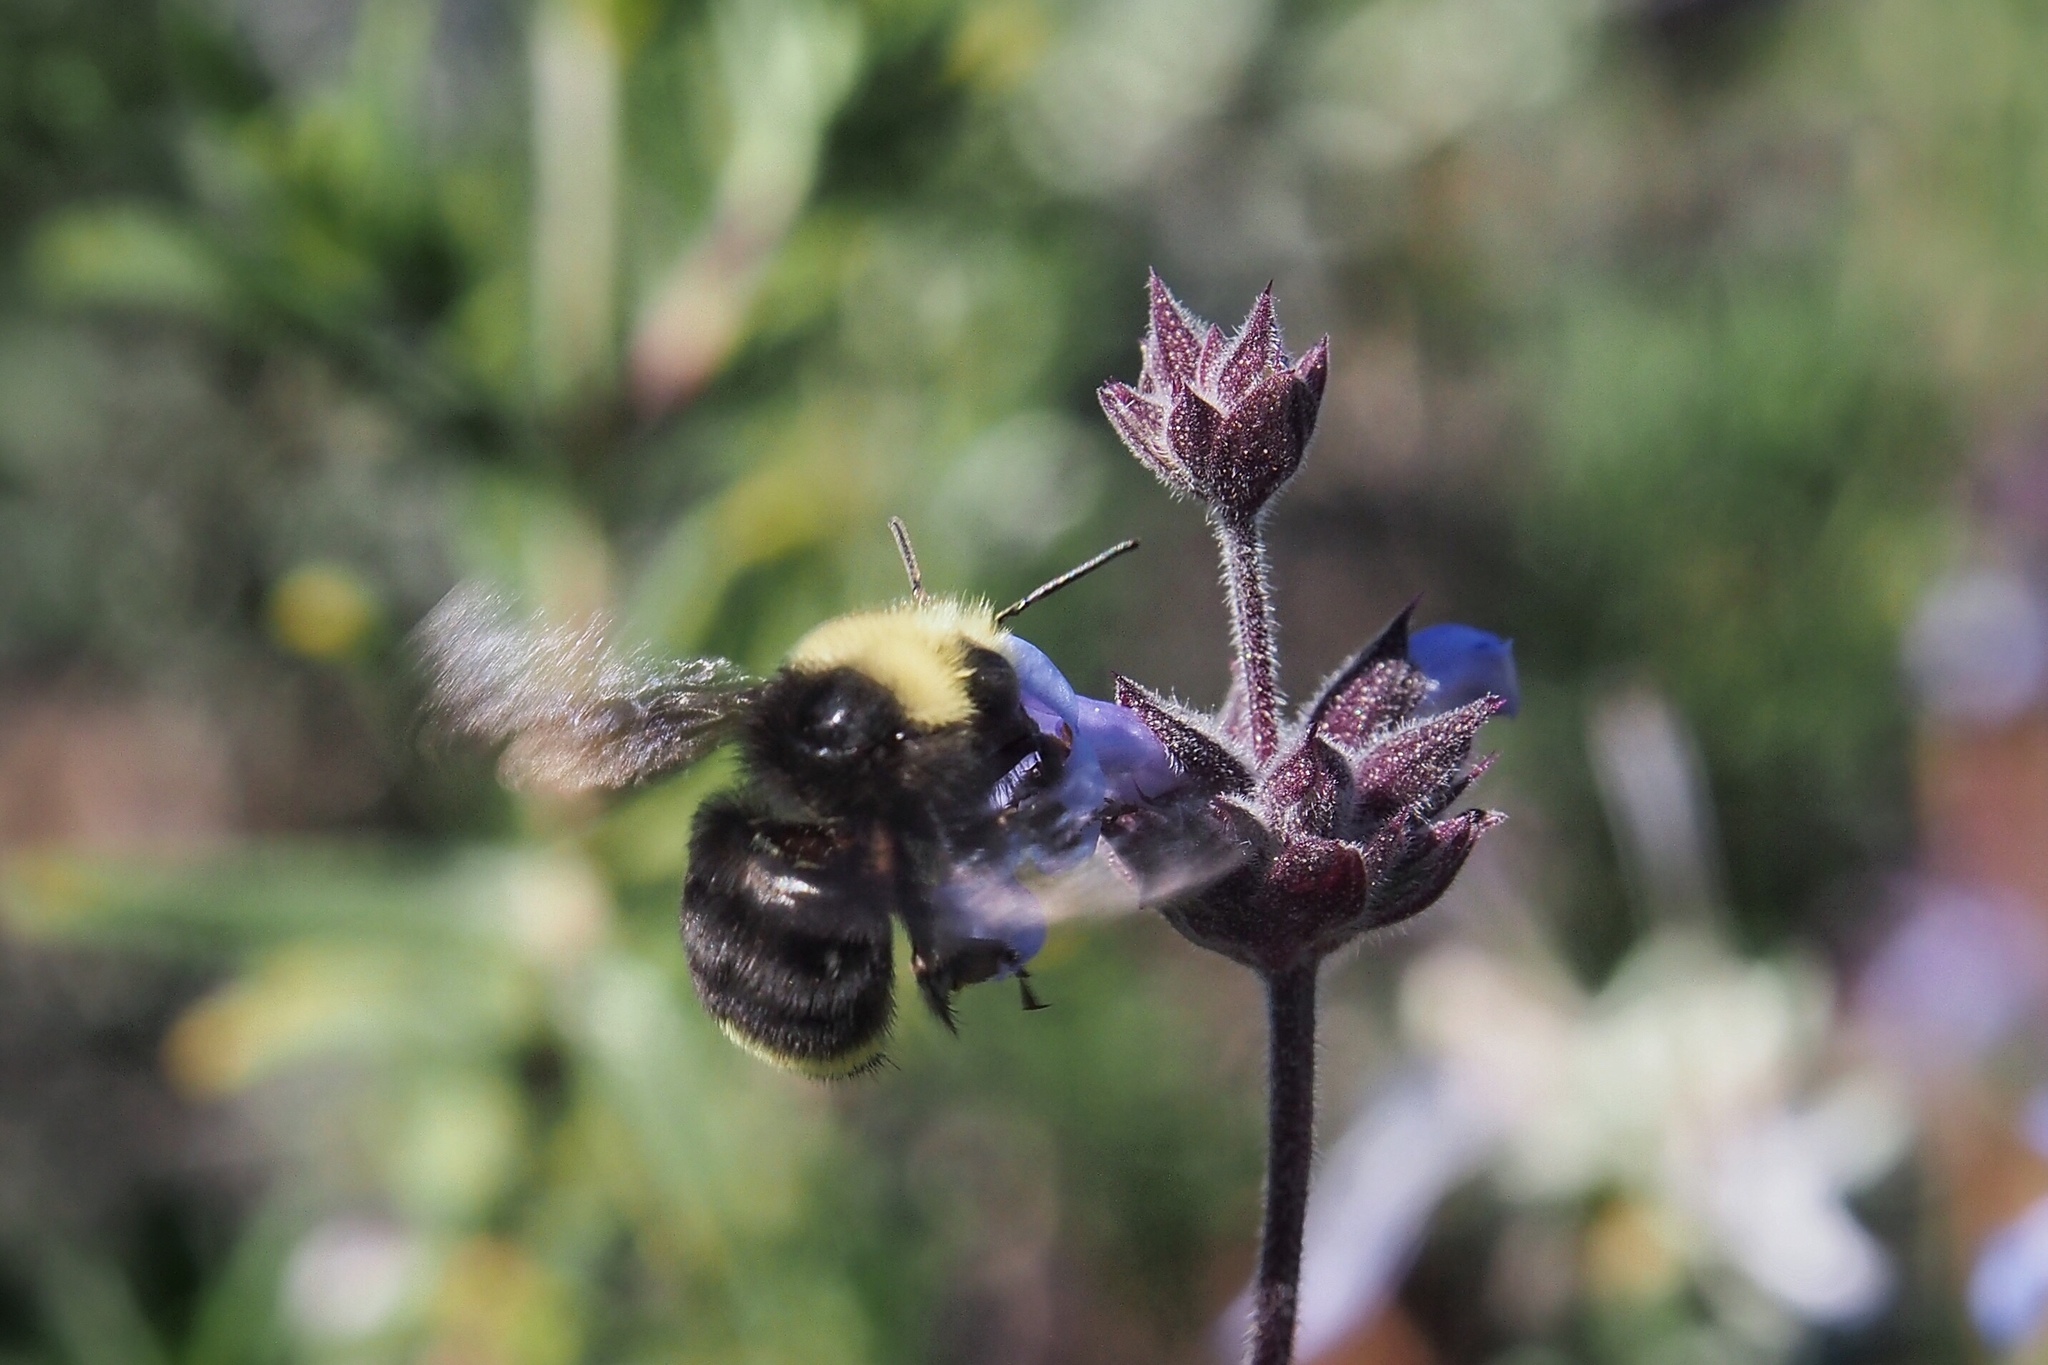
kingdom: Animalia
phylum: Arthropoda
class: Insecta
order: Hymenoptera
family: Apidae
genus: Bombus
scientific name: Bombus vosnesenskii
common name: Vosnesensky bumble bee
